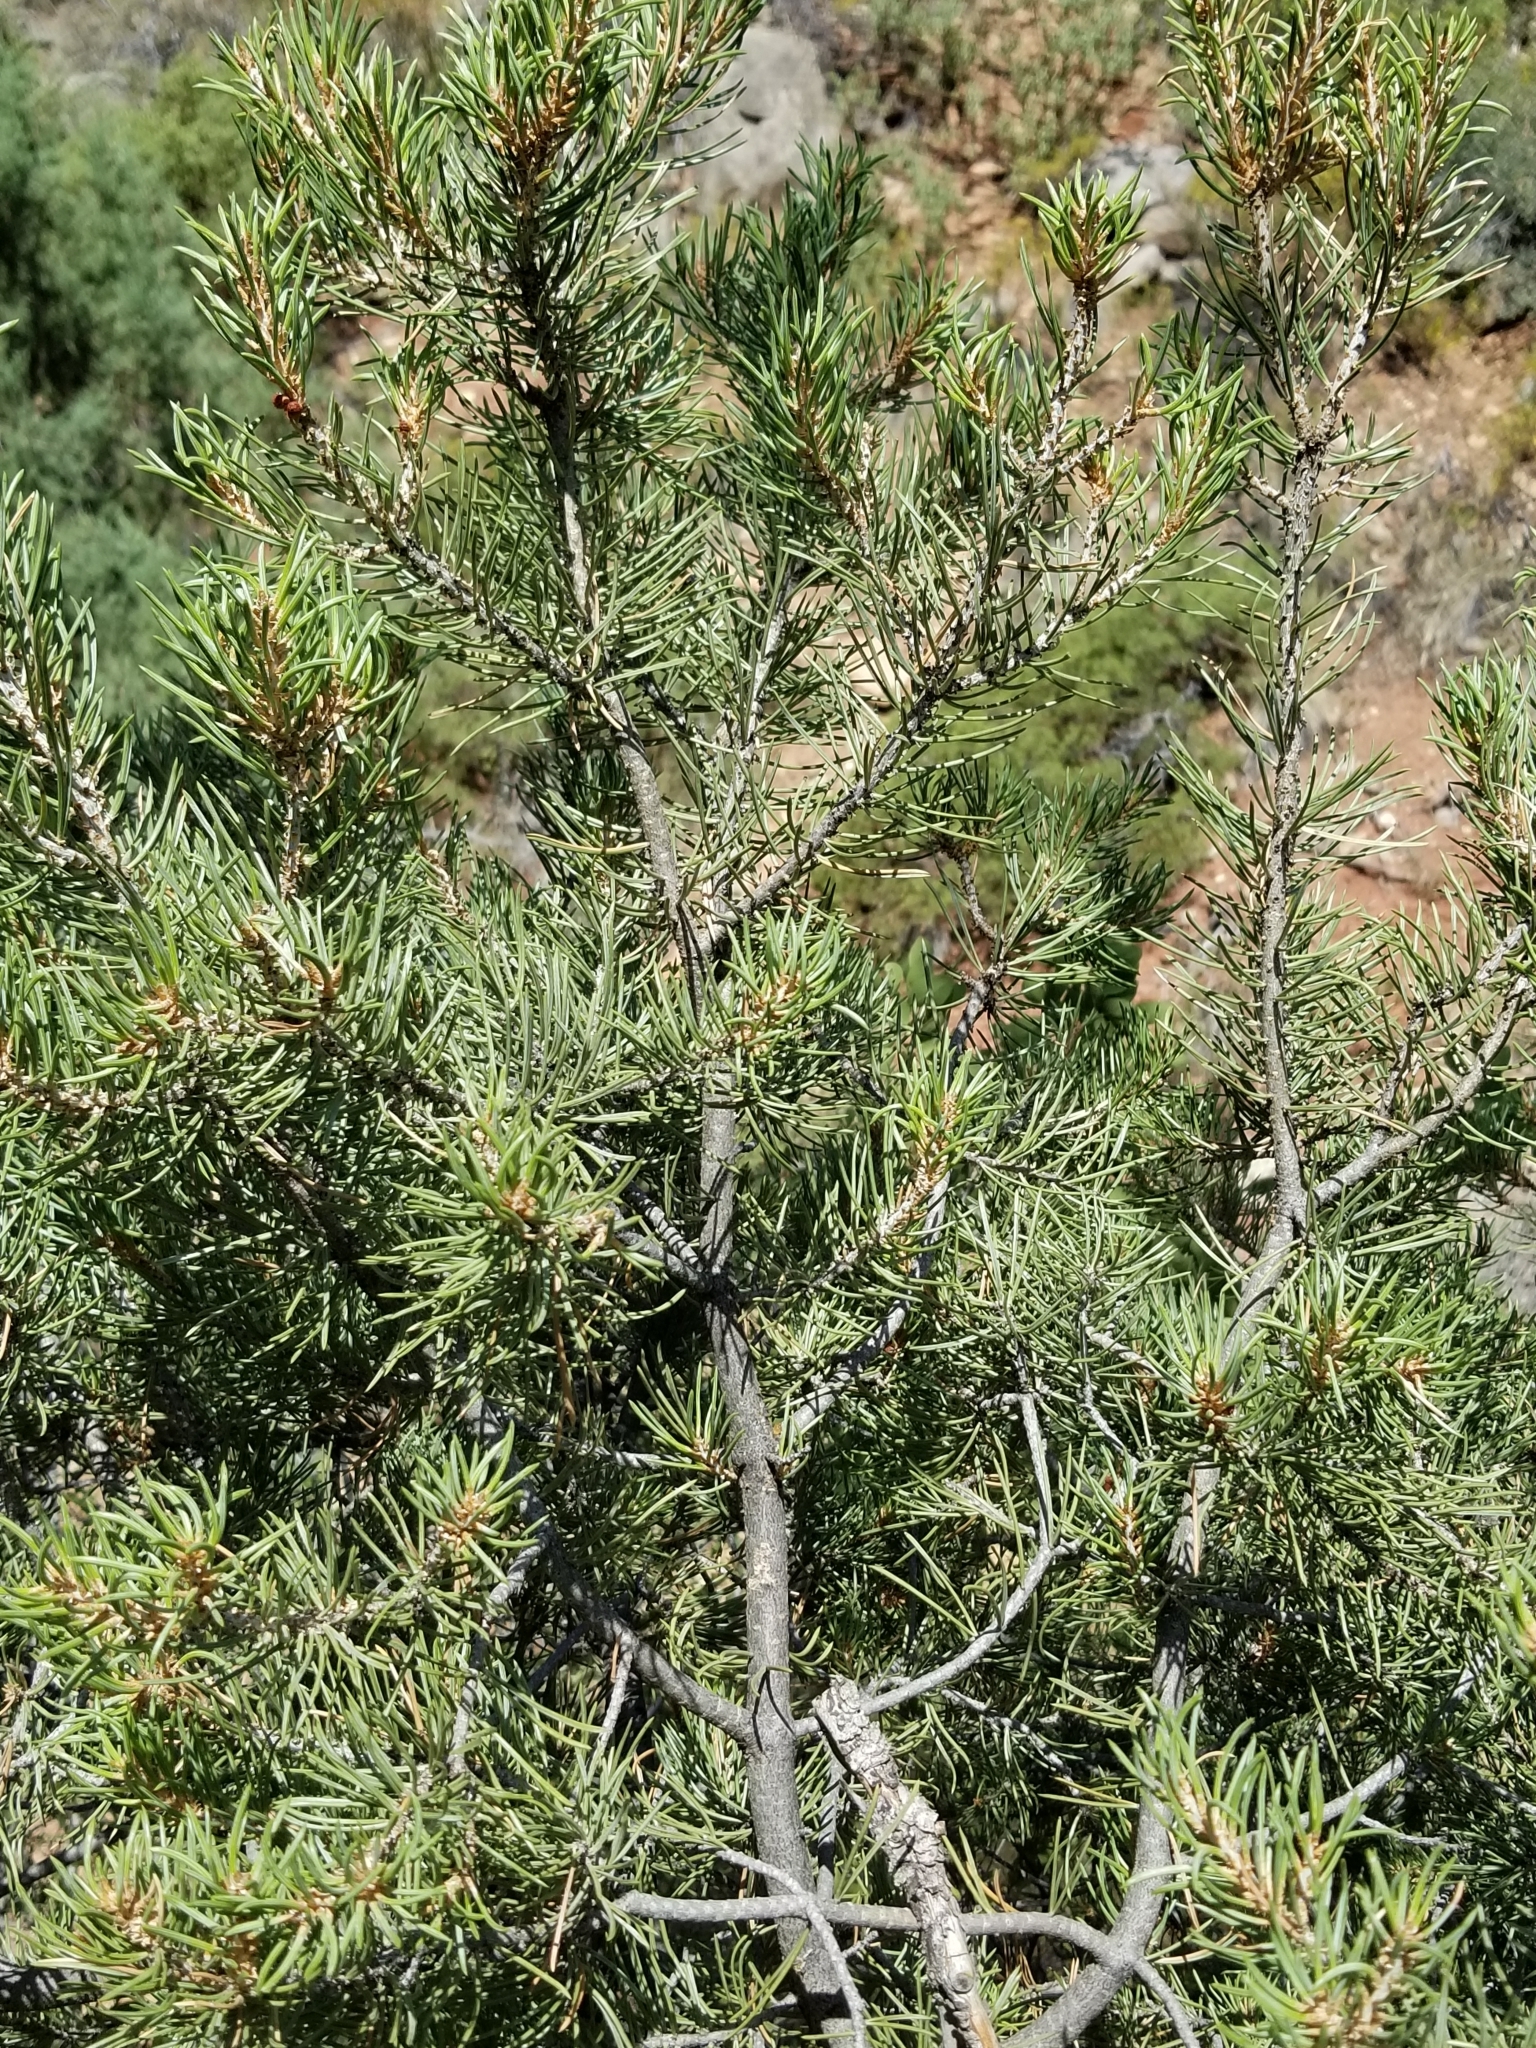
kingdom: Plantae
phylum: Tracheophyta
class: Pinopsida
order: Pinales
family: Pinaceae
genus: Pinus
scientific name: Pinus monophylla
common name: One-leaved nut pine
